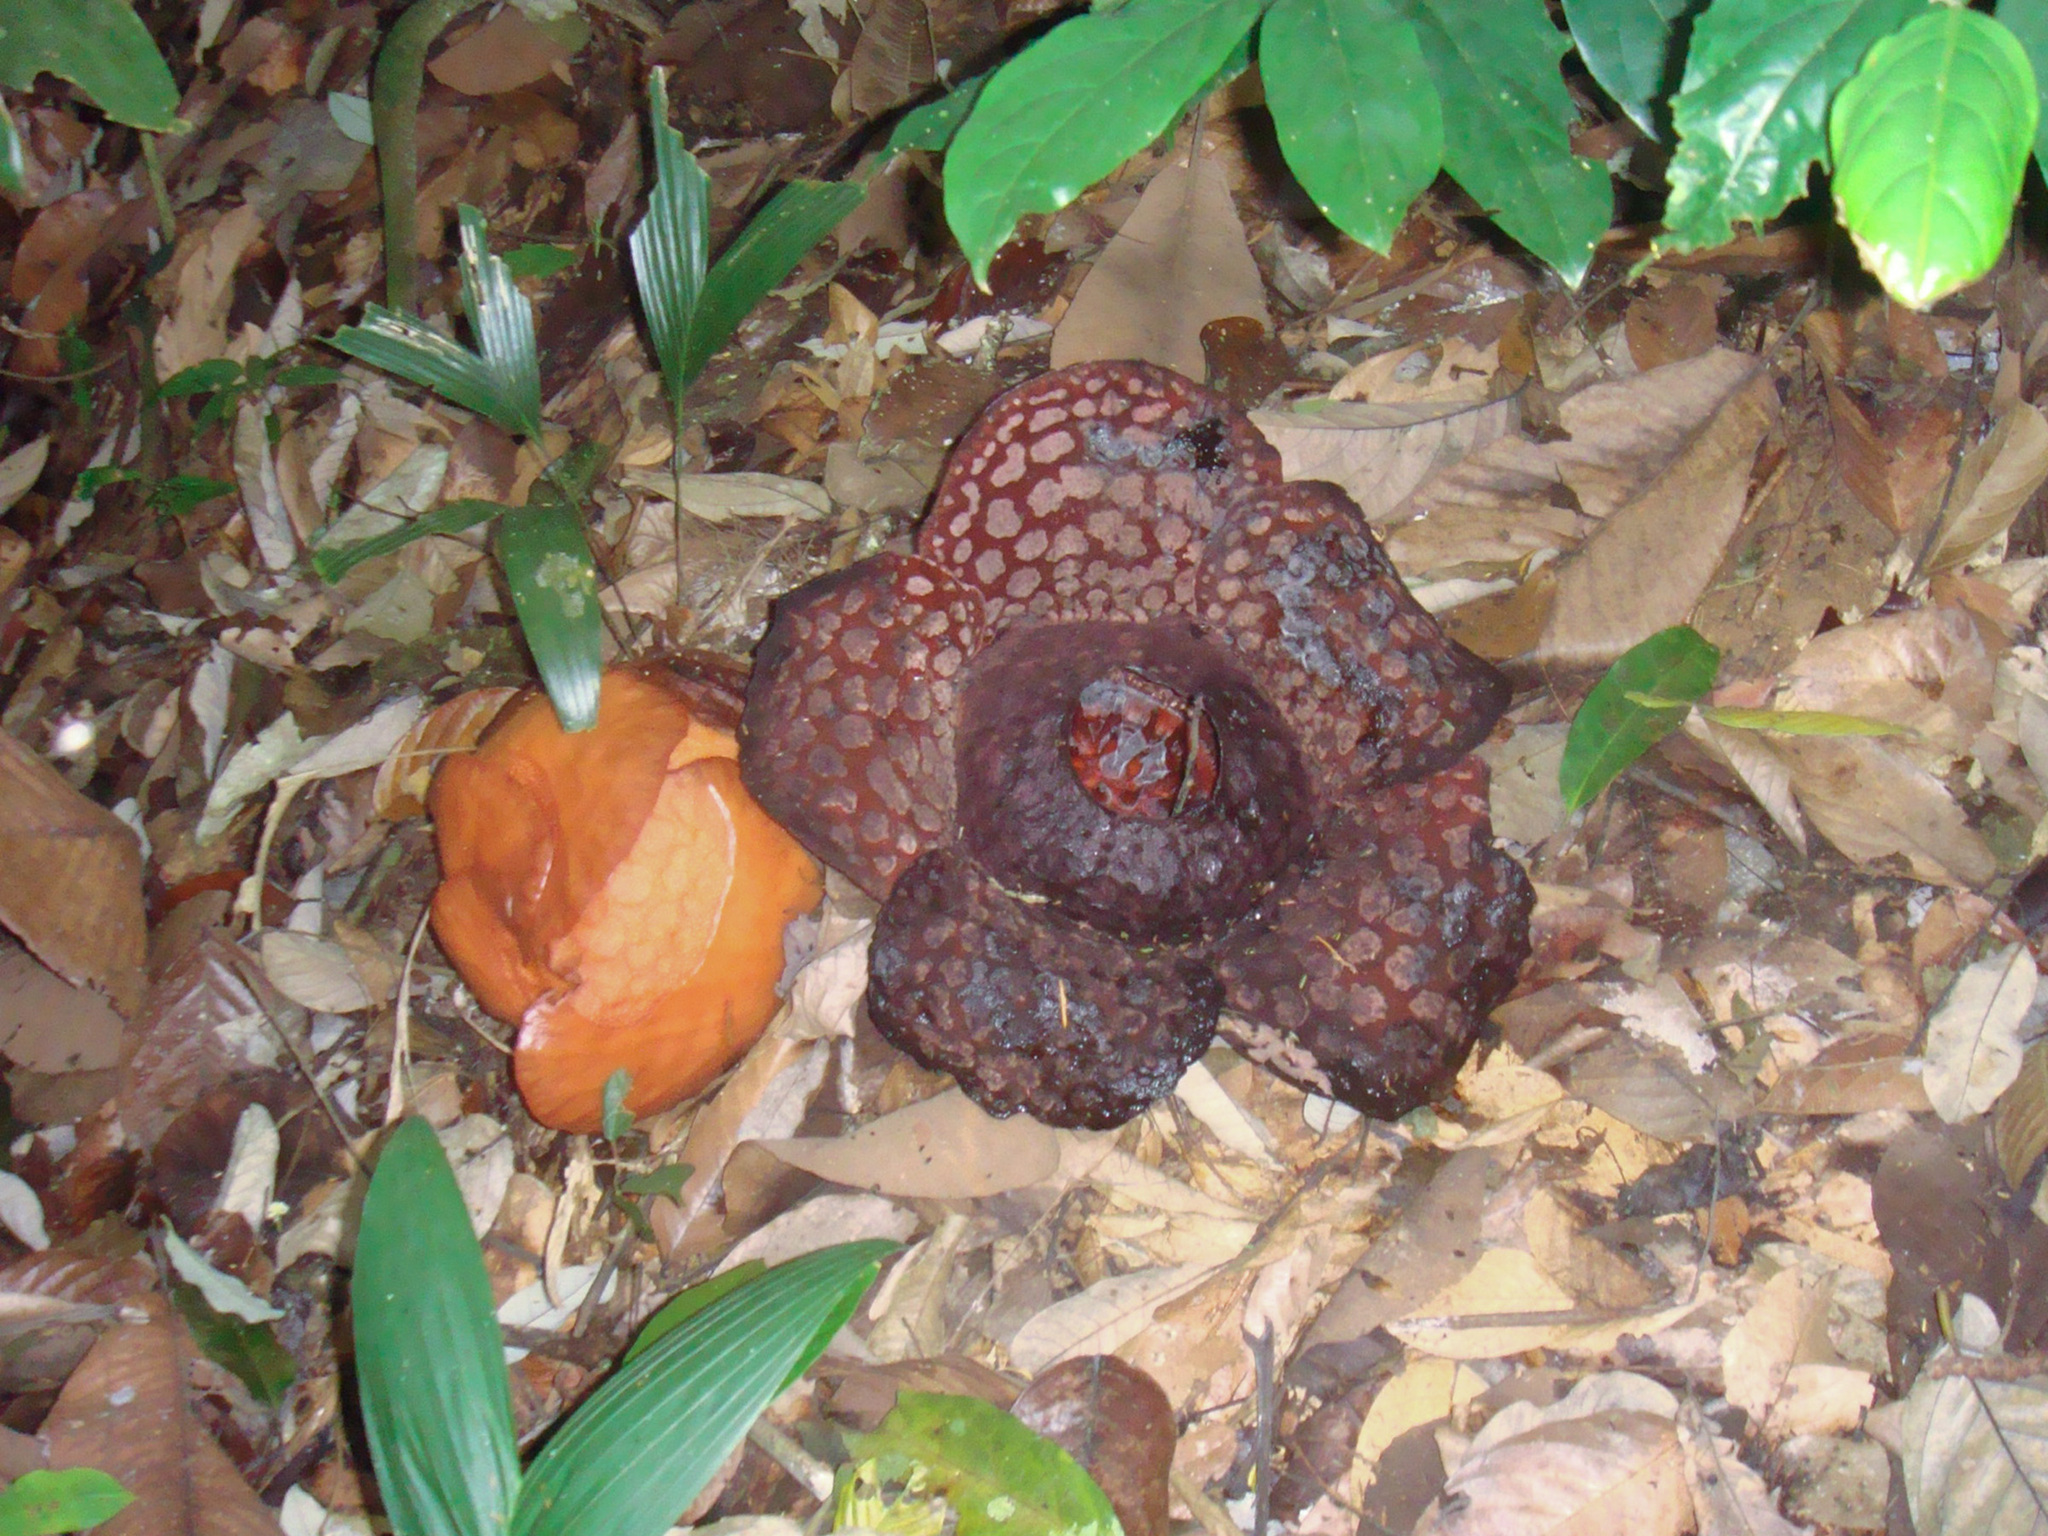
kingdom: Plantae
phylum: Tracheophyta
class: Magnoliopsida
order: Malpighiales
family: Rafflesiaceae
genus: Rafflesia
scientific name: Rafflesia cantleyi
